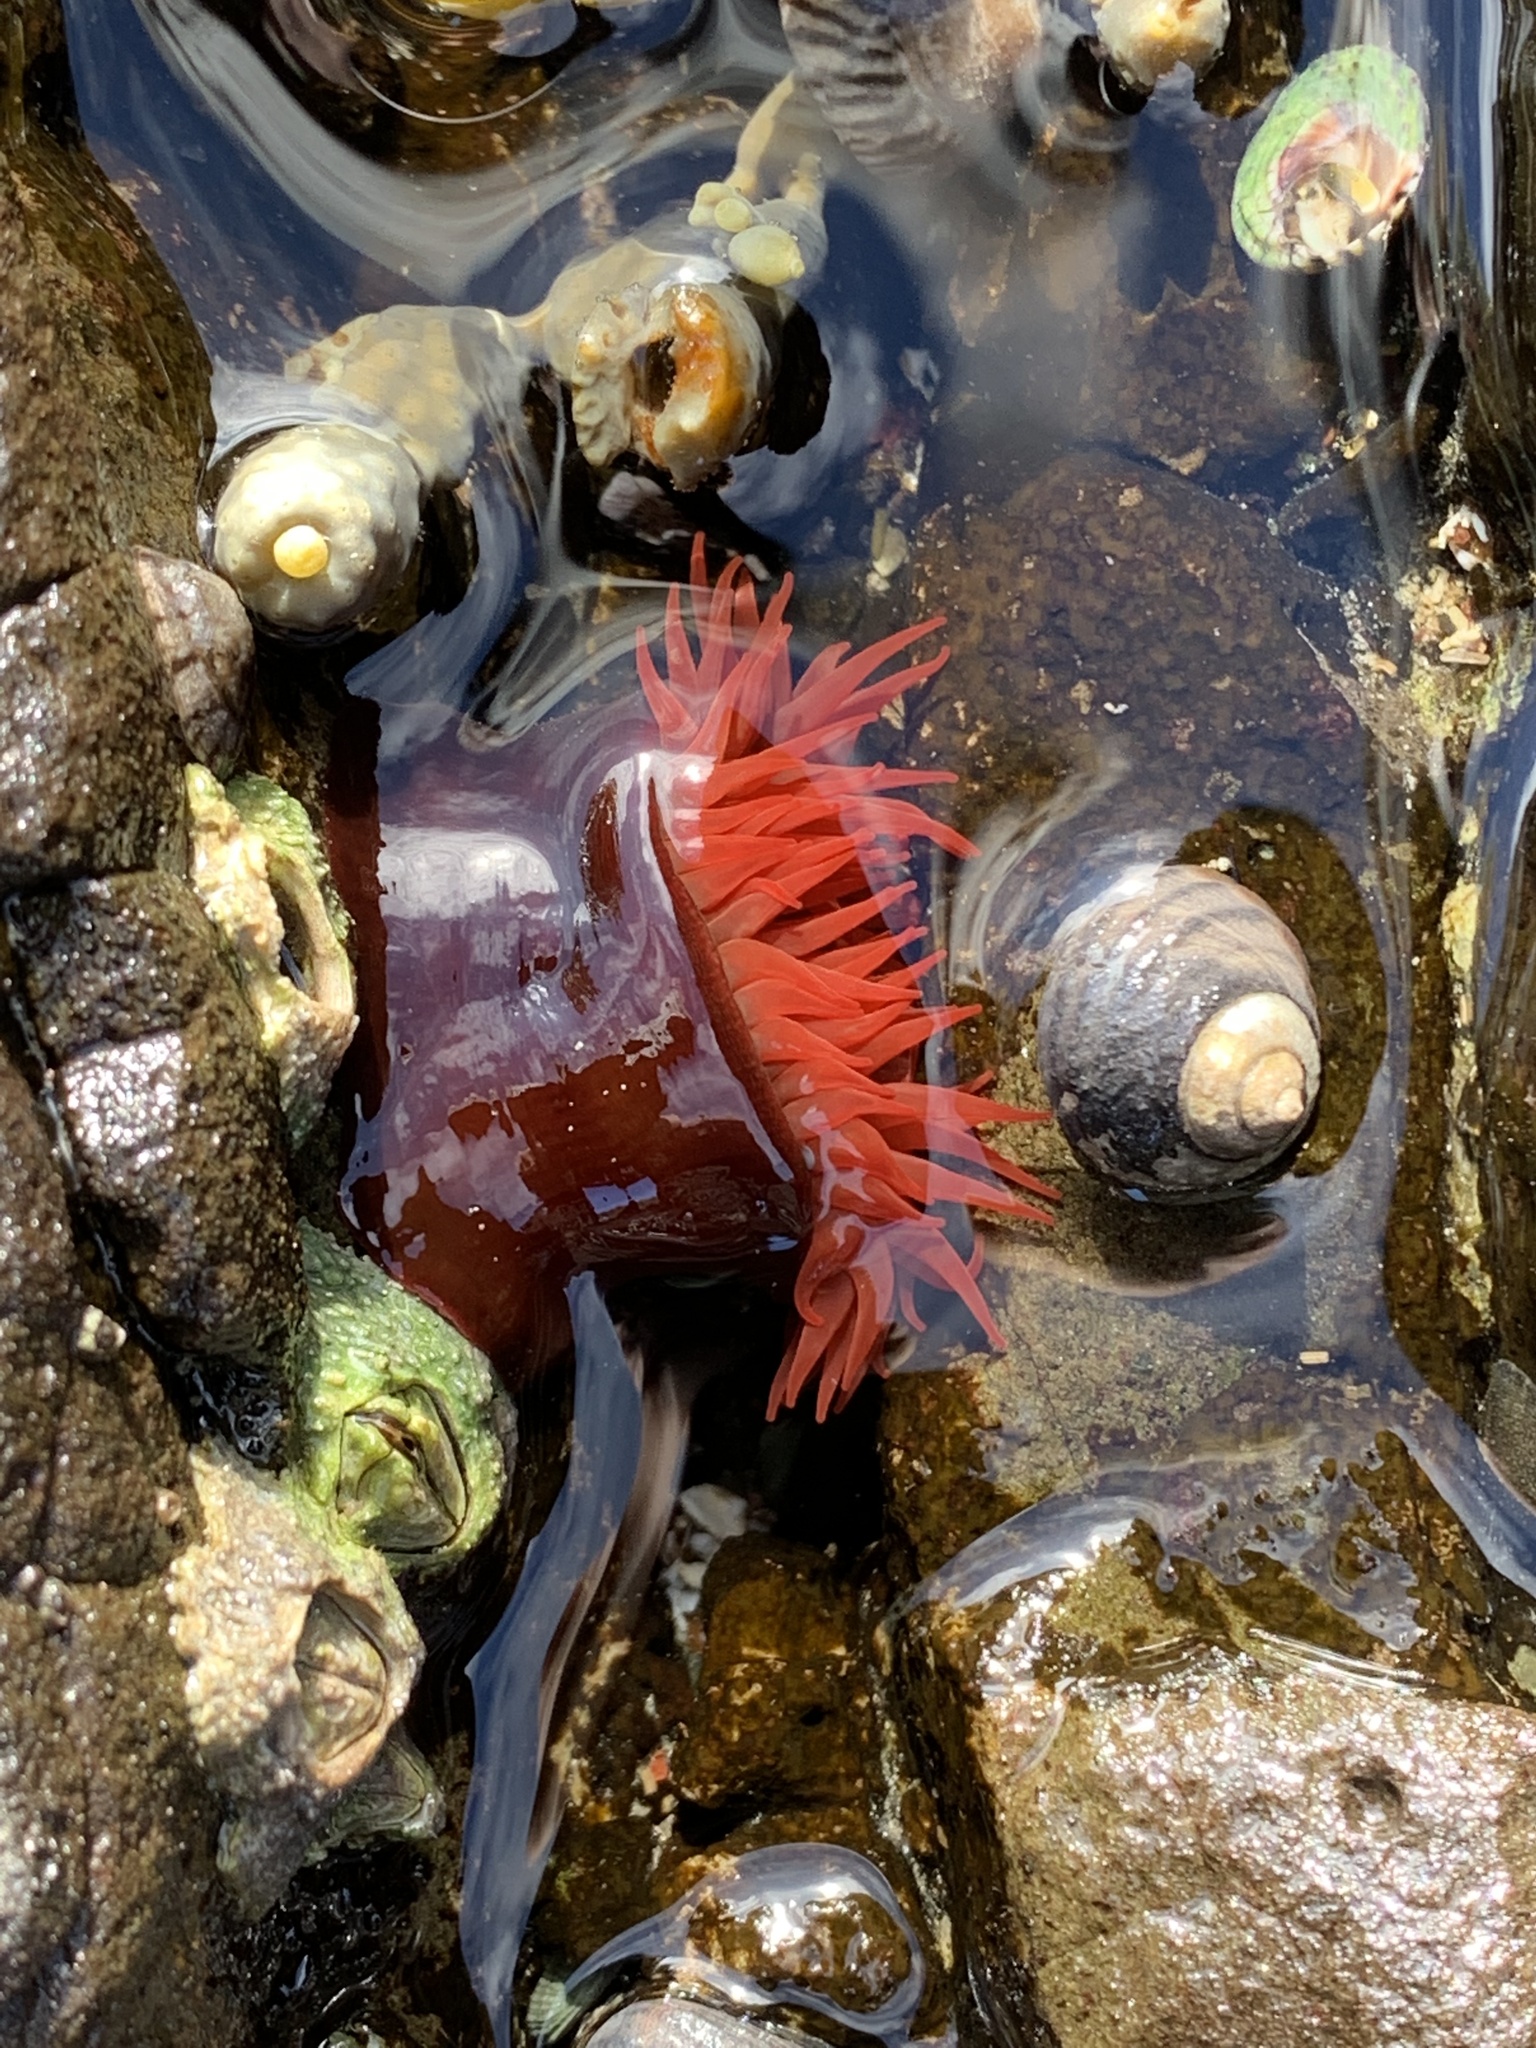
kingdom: Animalia
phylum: Cnidaria
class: Anthozoa
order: Actiniaria
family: Actiniidae
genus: Actinia
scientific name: Actinia tenebrosa
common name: Waratah anemone
